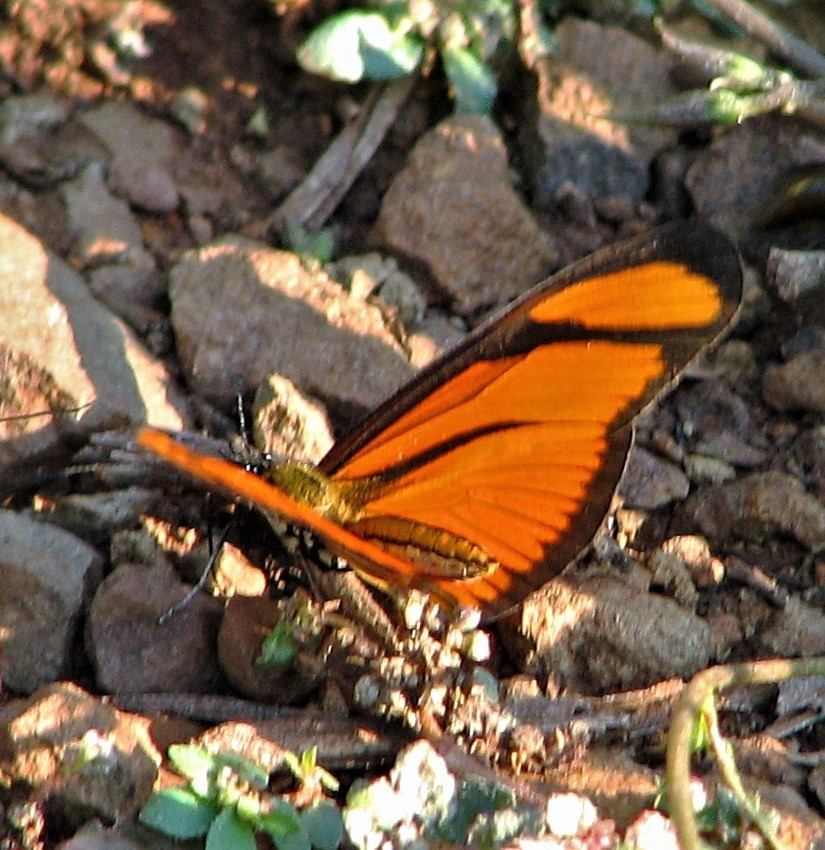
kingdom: Animalia
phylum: Arthropoda
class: Insecta
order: Lepidoptera
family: Nymphalidae
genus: Heliconius
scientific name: Heliconius aliphera
